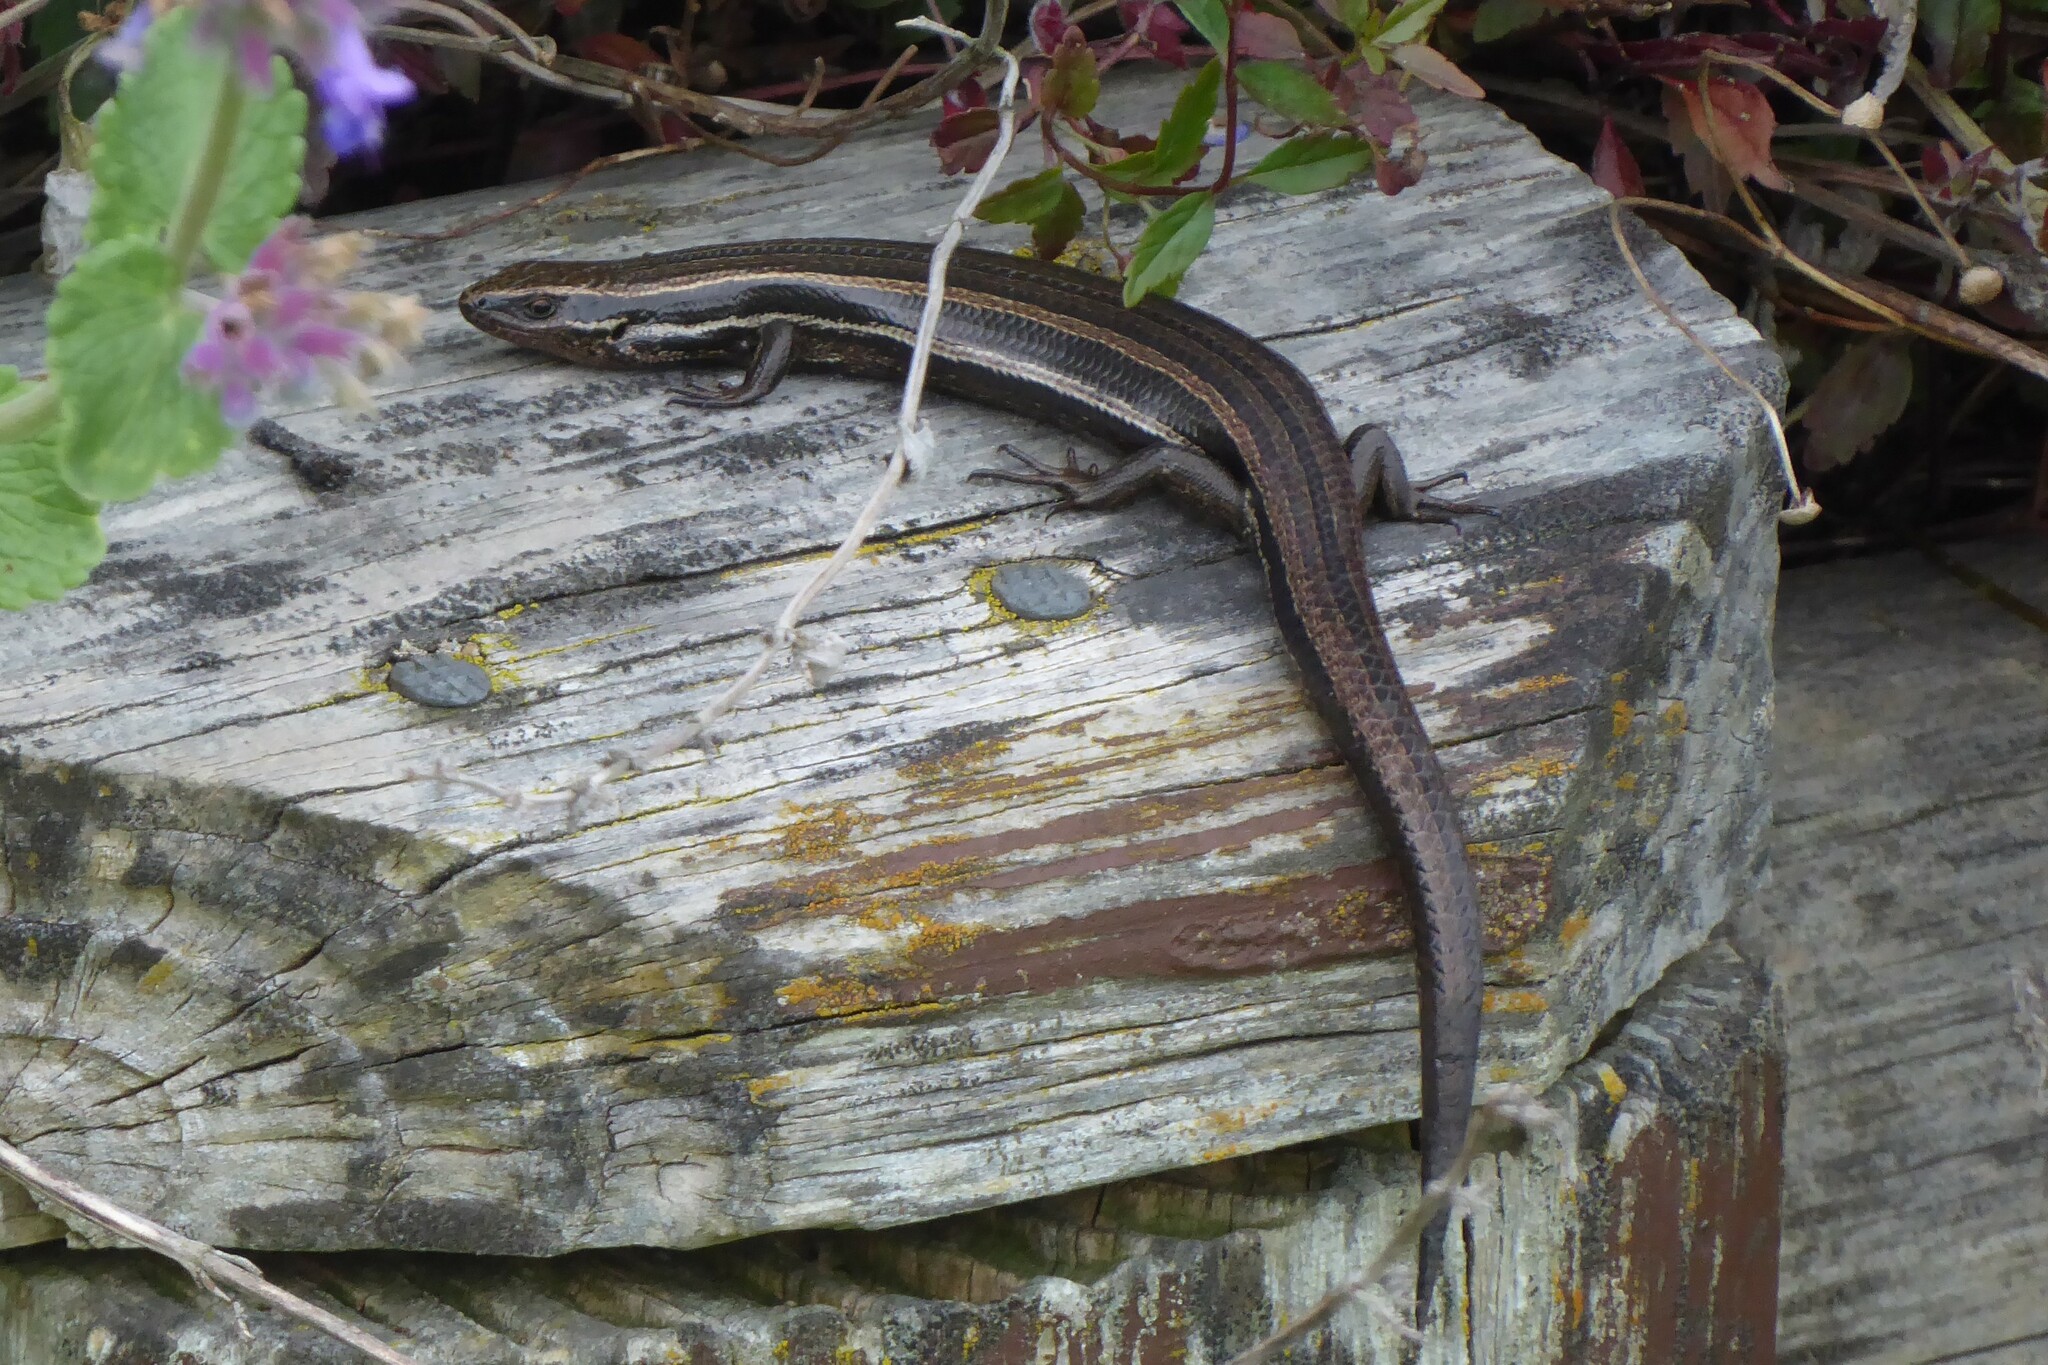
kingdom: Animalia
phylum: Chordata
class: Squamata
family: Scincidae
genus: Oligosoma
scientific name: Oligosoma polychroma
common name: Common new zealand skink
